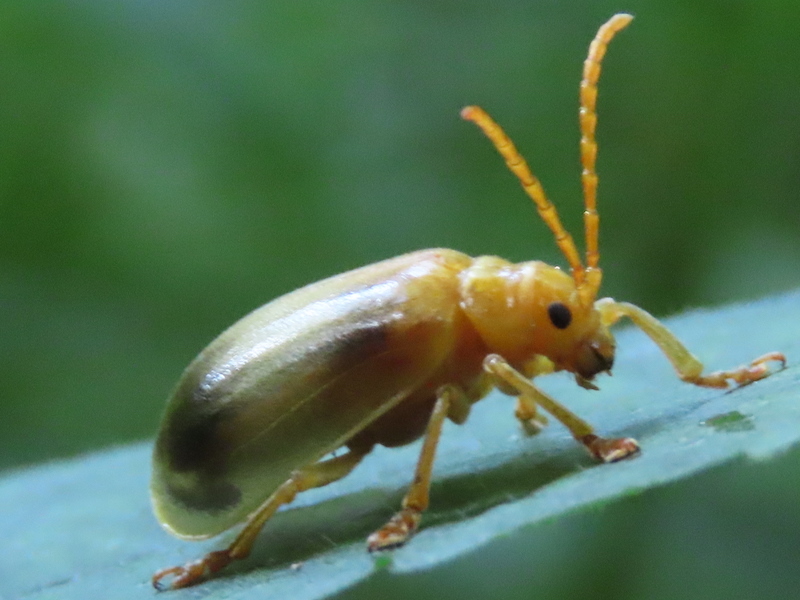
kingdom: Animalia
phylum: Arthropoda
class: Insecta
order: Coleoptera
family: Chrysomelidae
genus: Monocesta
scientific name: Monocesta coryli
